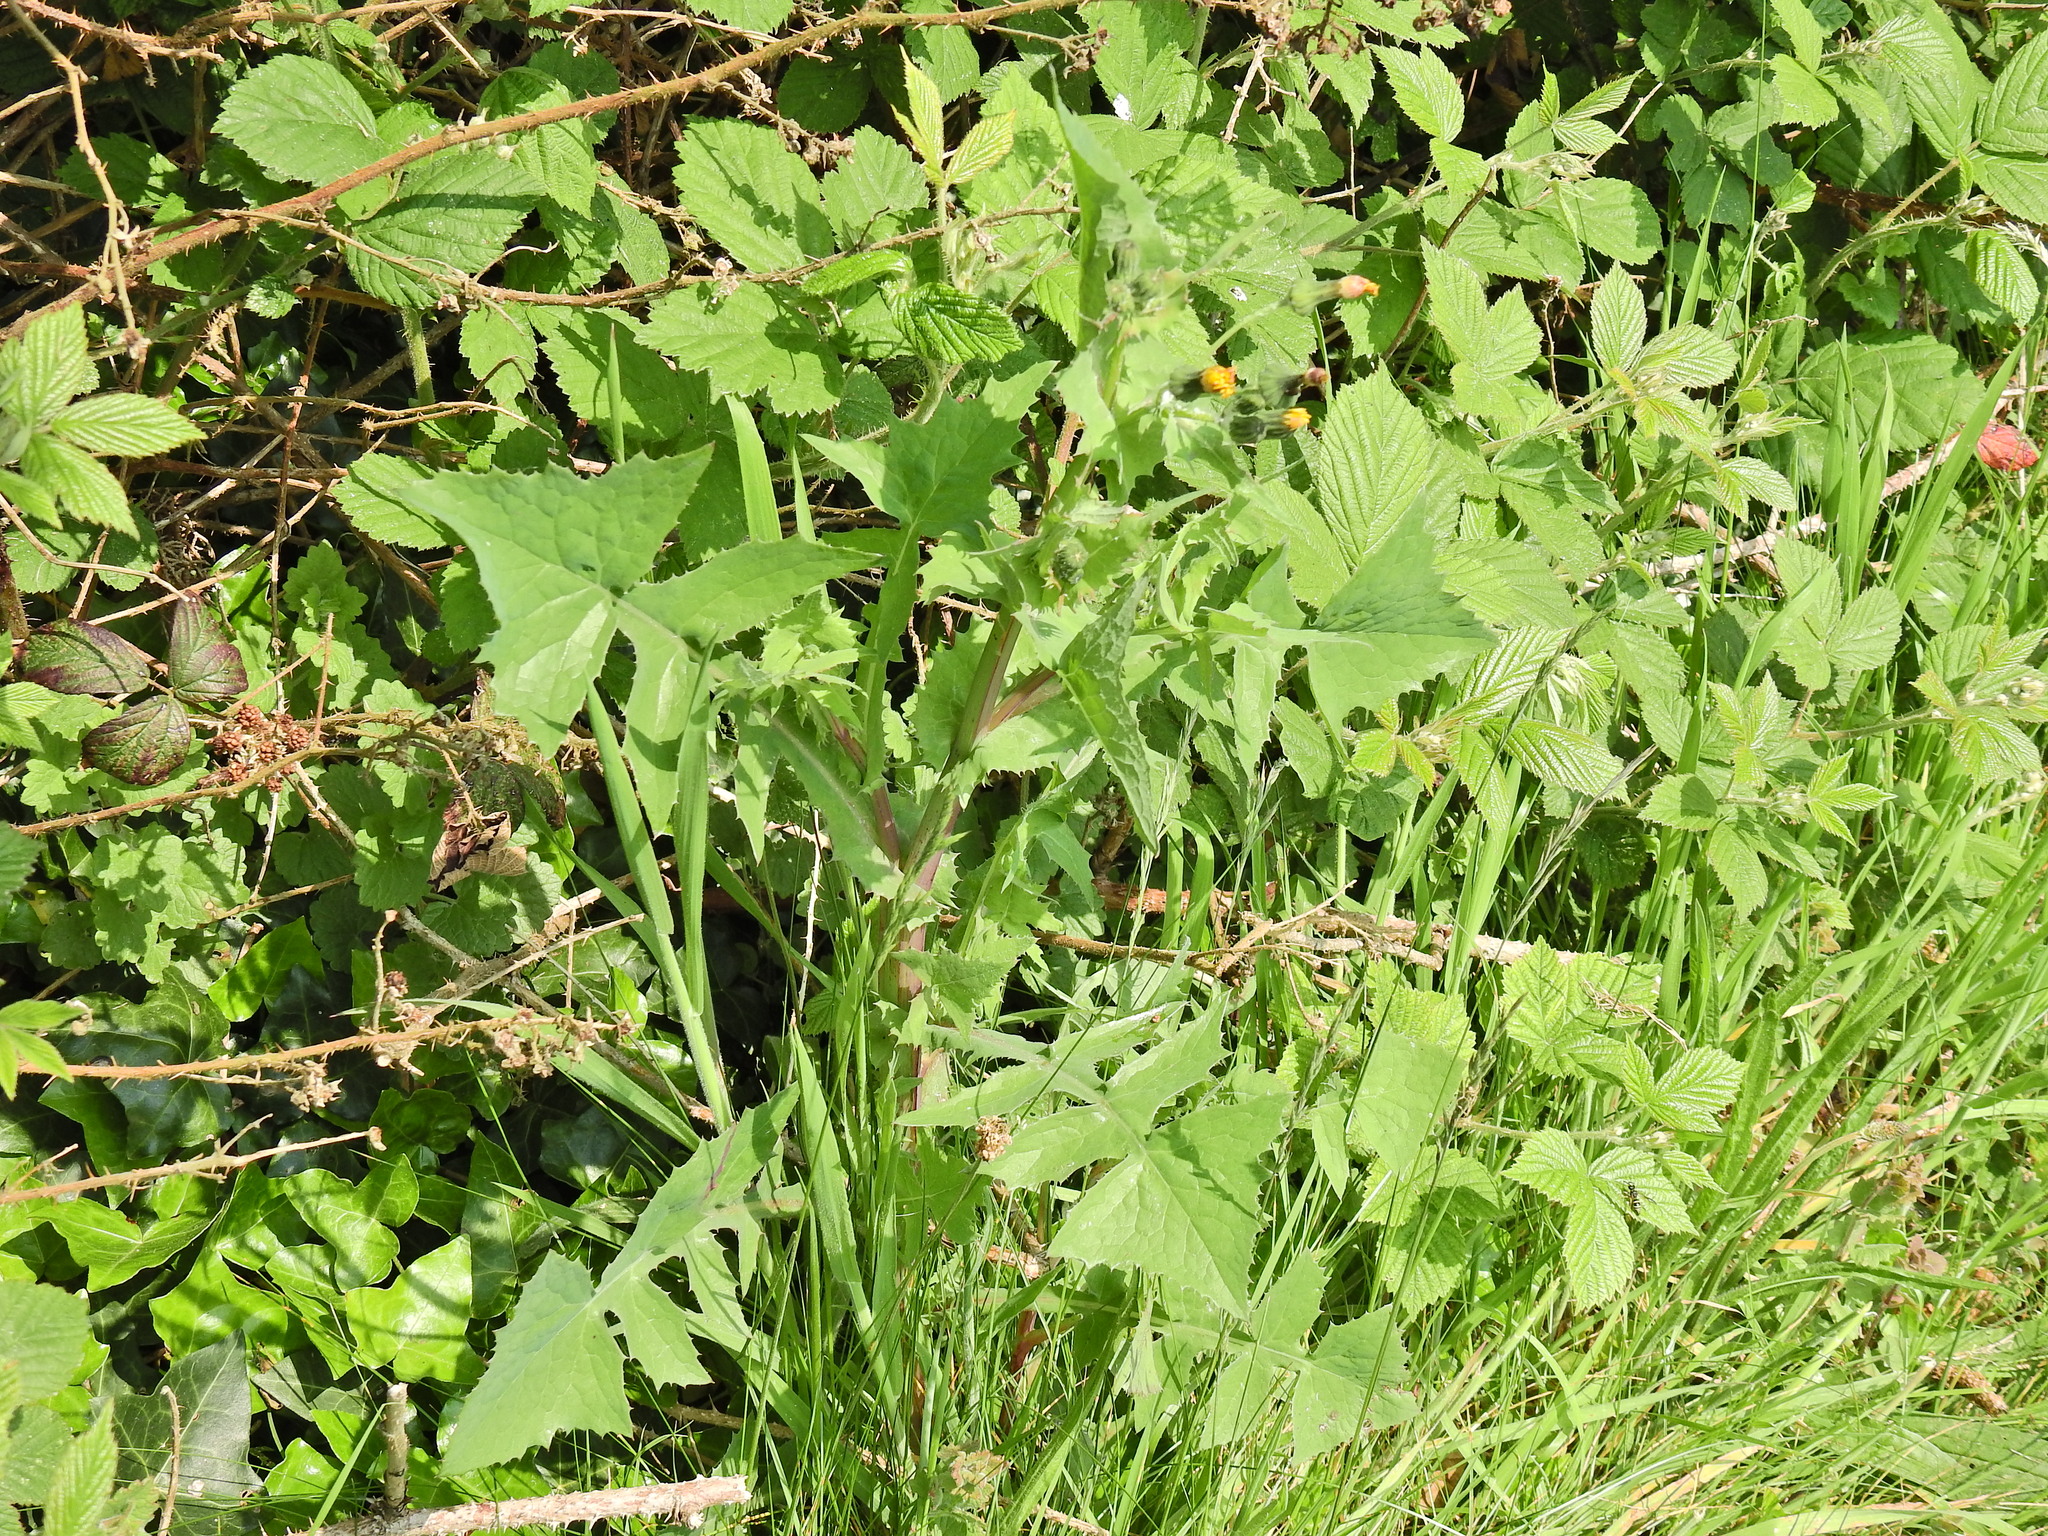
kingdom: Plantae
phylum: Tracheophyta
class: Magnoliopsida
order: Asterales
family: Asteraceae
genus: Sonchus
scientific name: Sonchus oleraceus
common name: Common sowthistle
